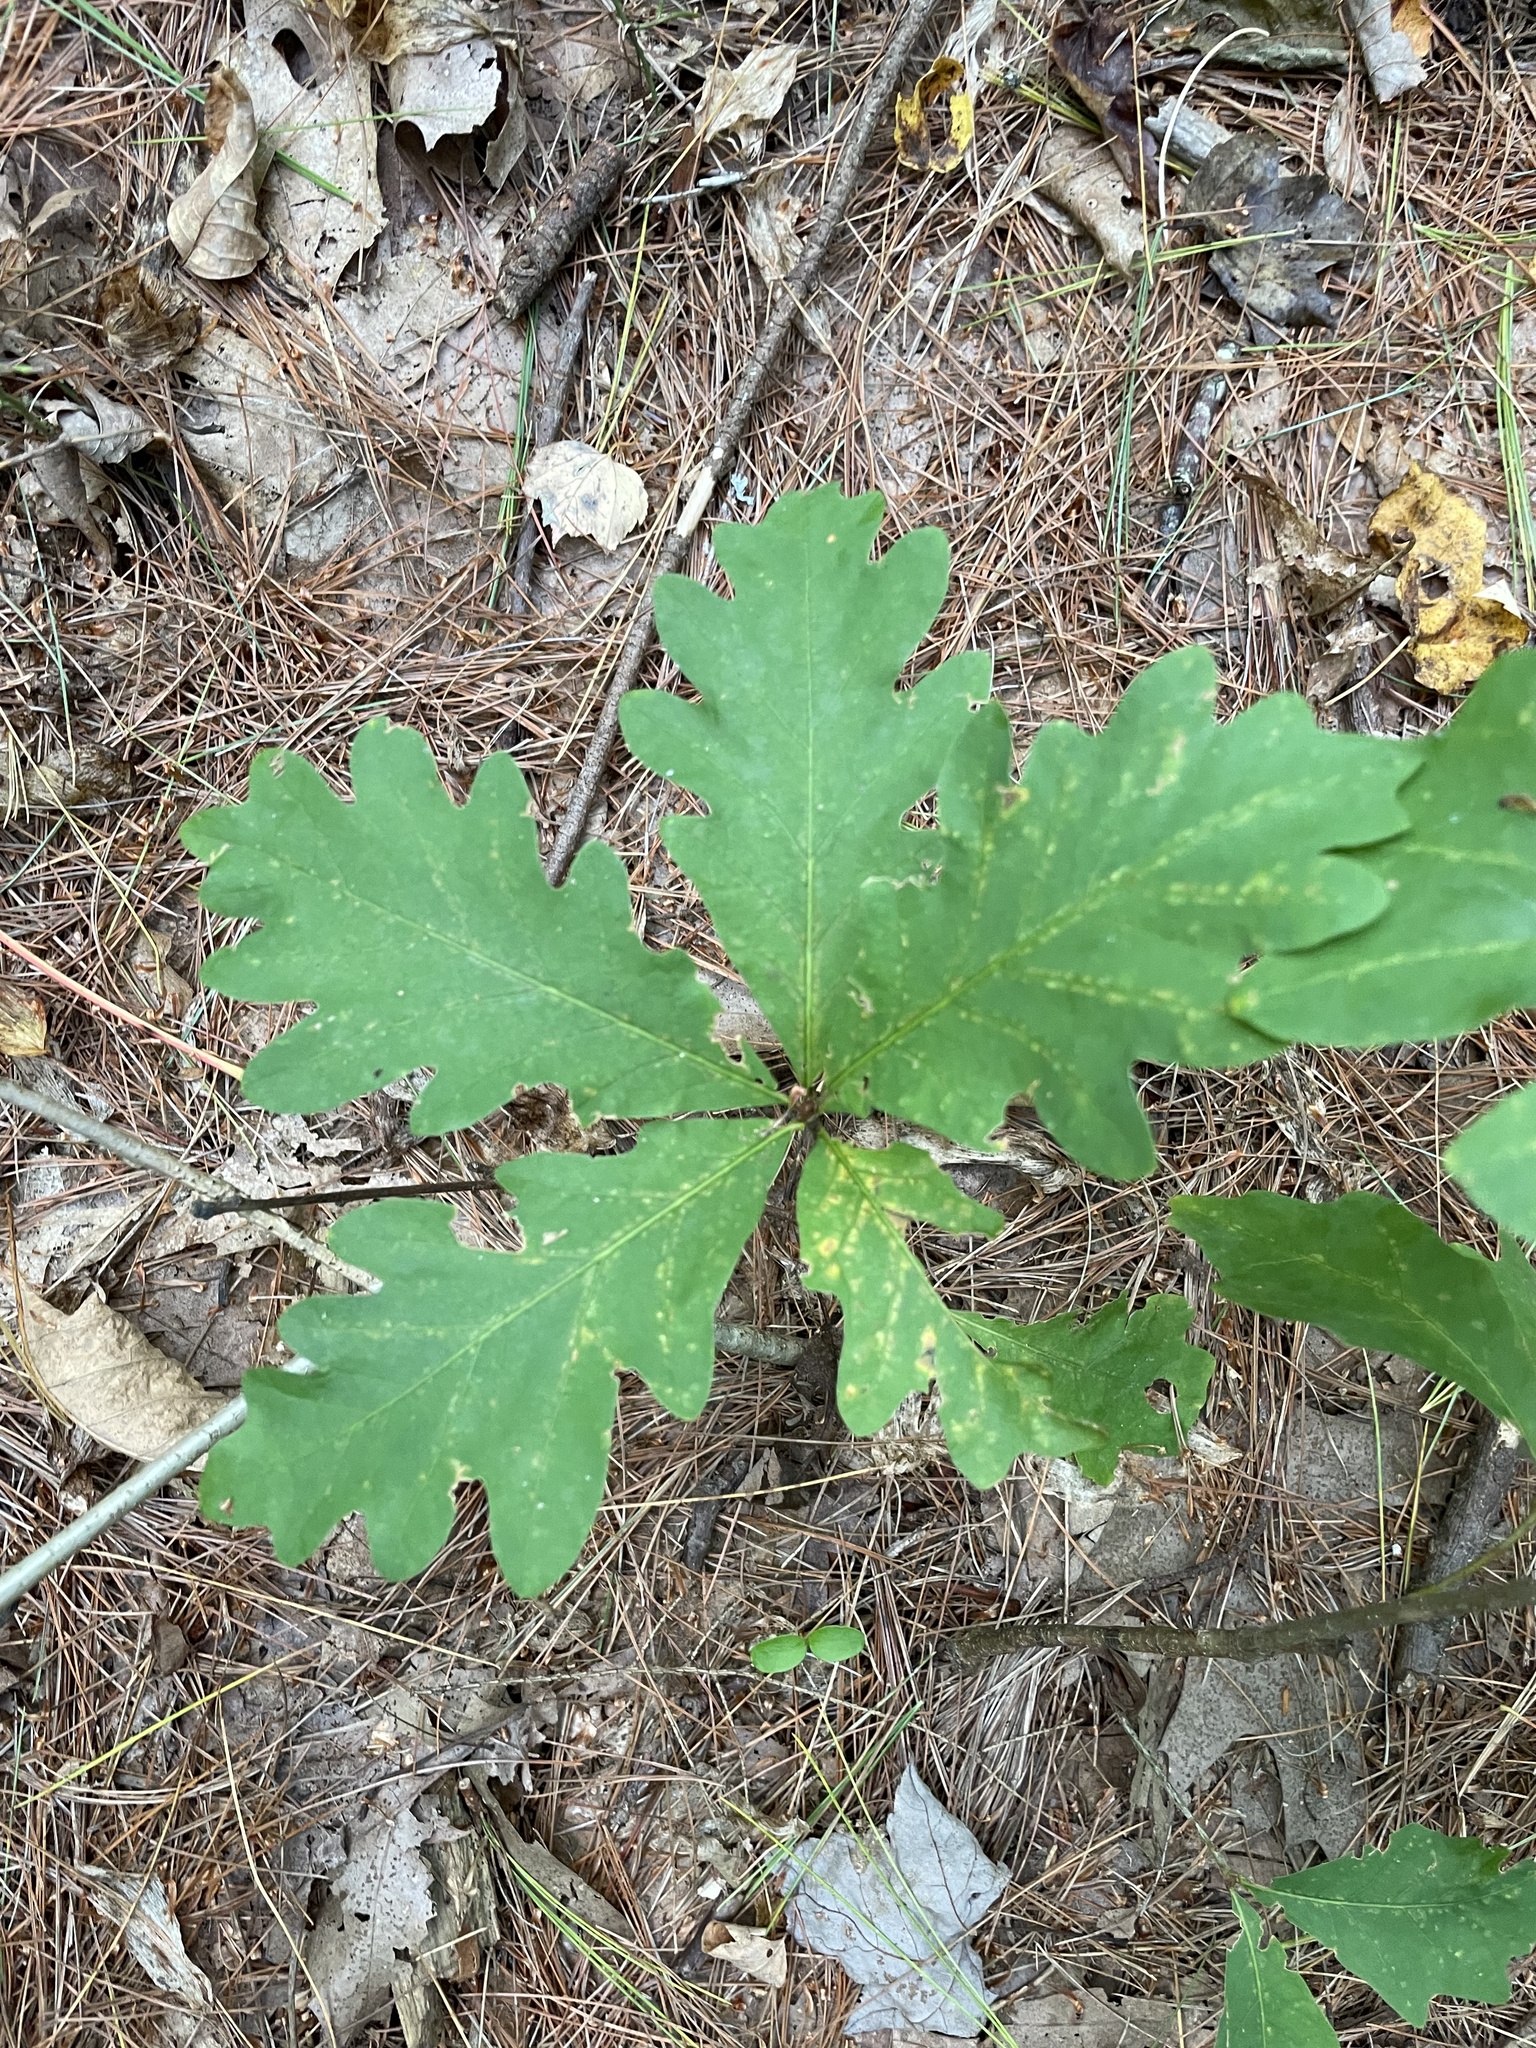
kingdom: Plantae
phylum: Tracheophyta
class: Magnoliopsida
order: Fagales
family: Fagaceae
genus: Quercus
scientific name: Quercus alba
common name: White oak
